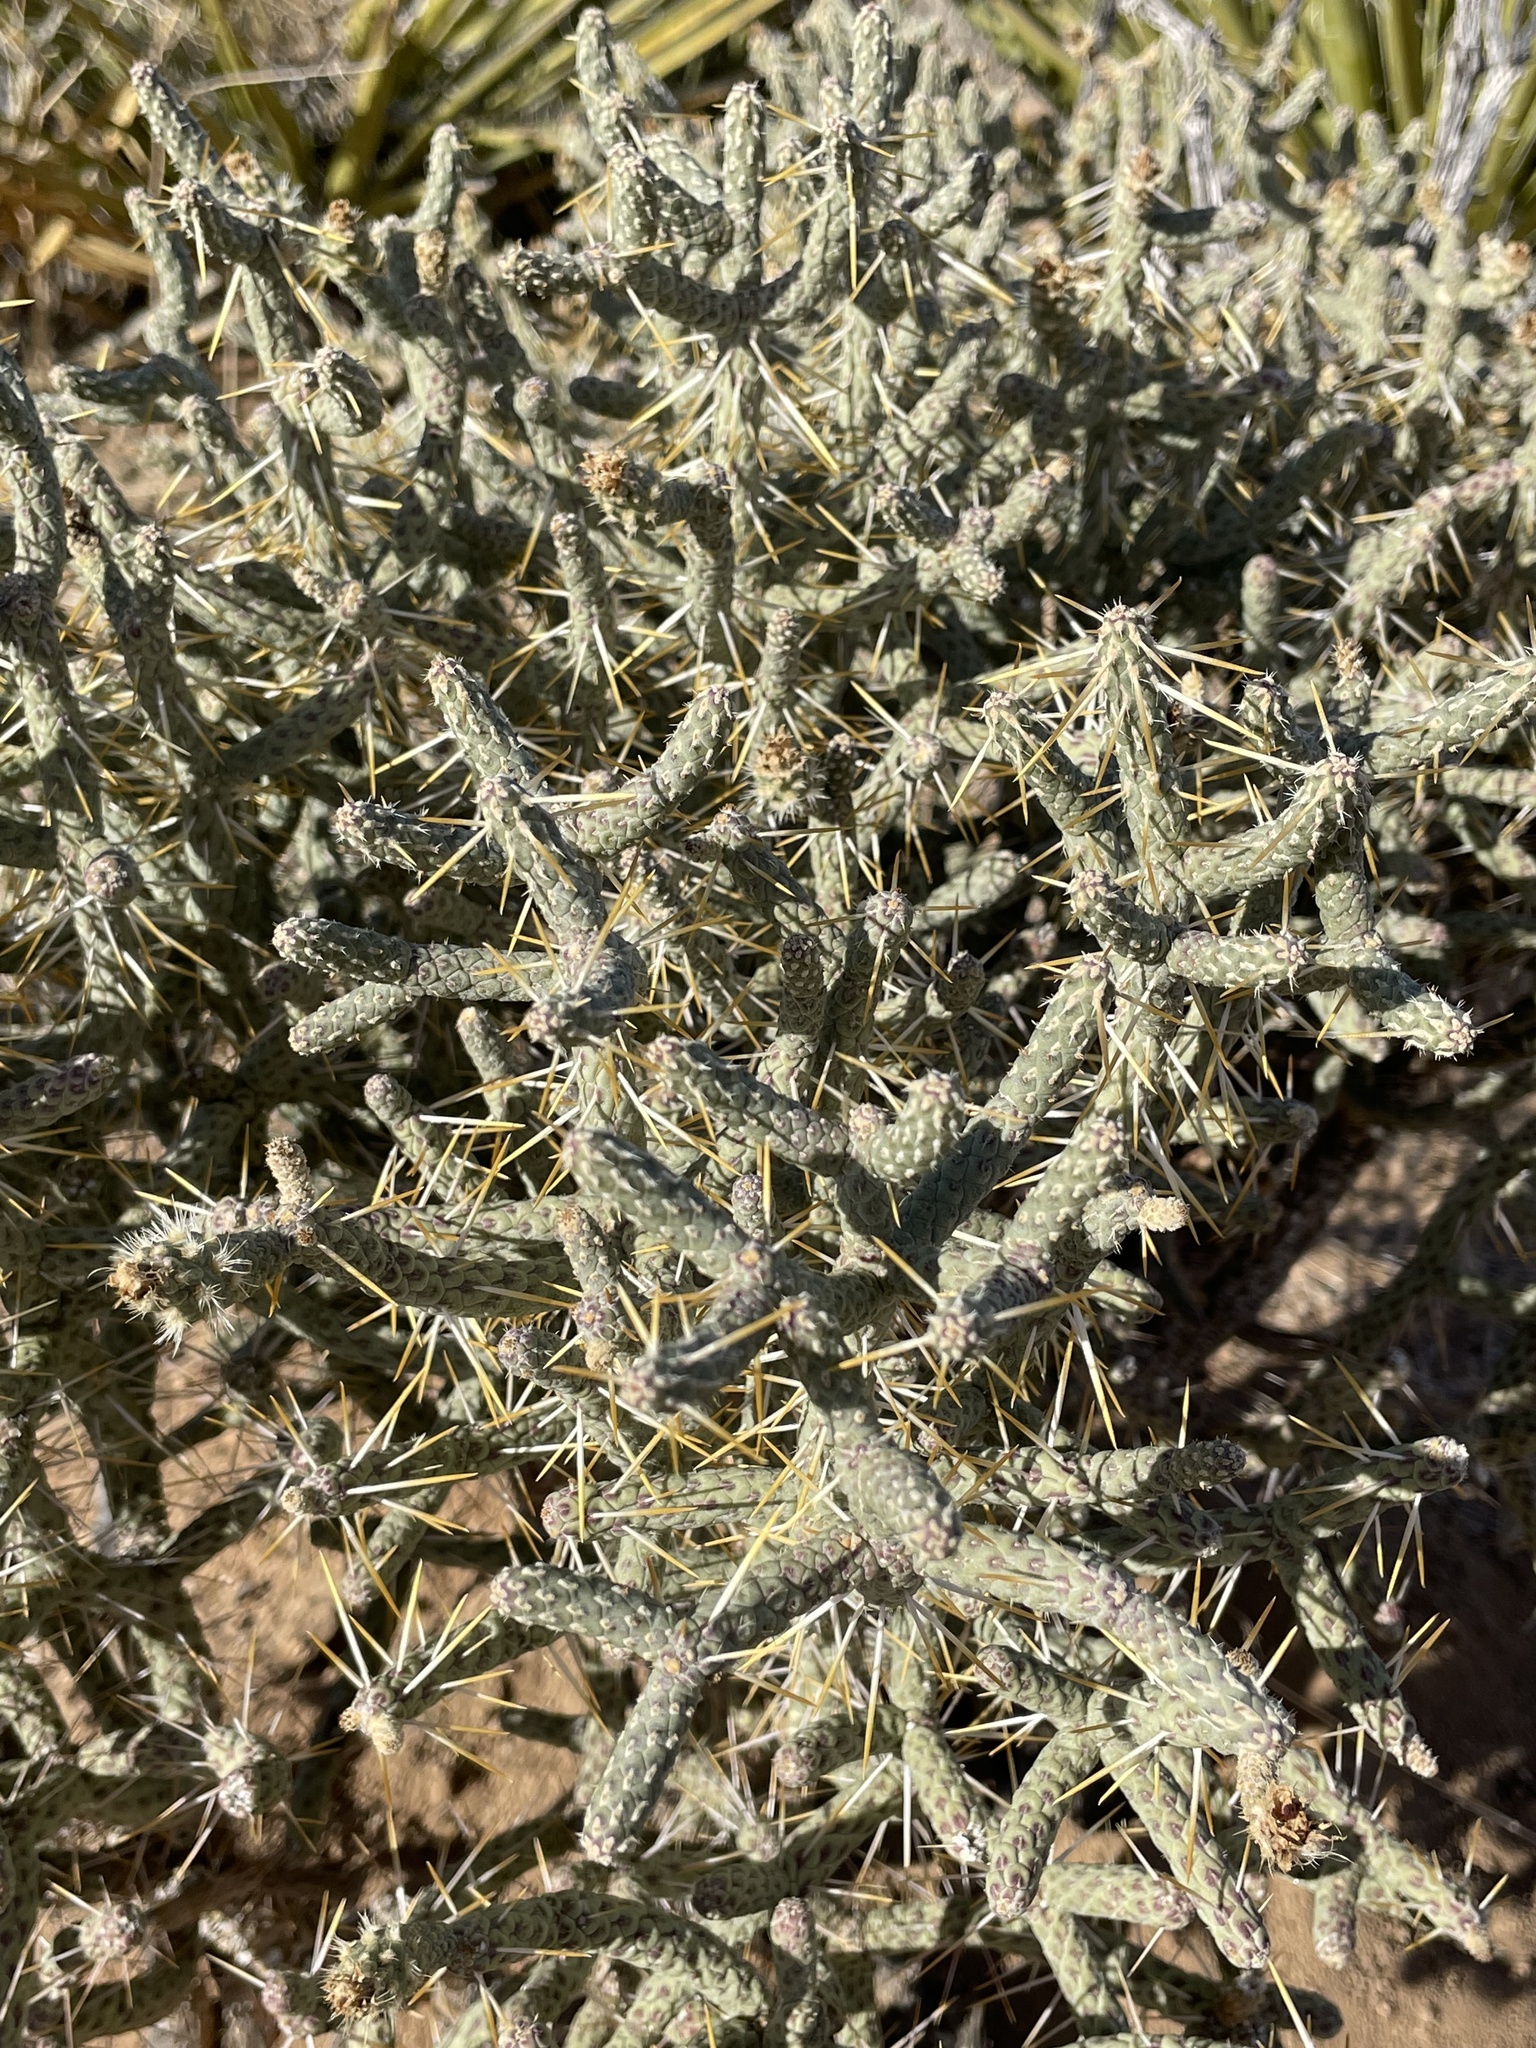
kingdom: Plantae
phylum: Tracheophyta
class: Magnoliopsida
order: Caryophyllales
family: Cactaceae
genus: Cylindropuntia
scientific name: Cylindropuntia ramosissima
